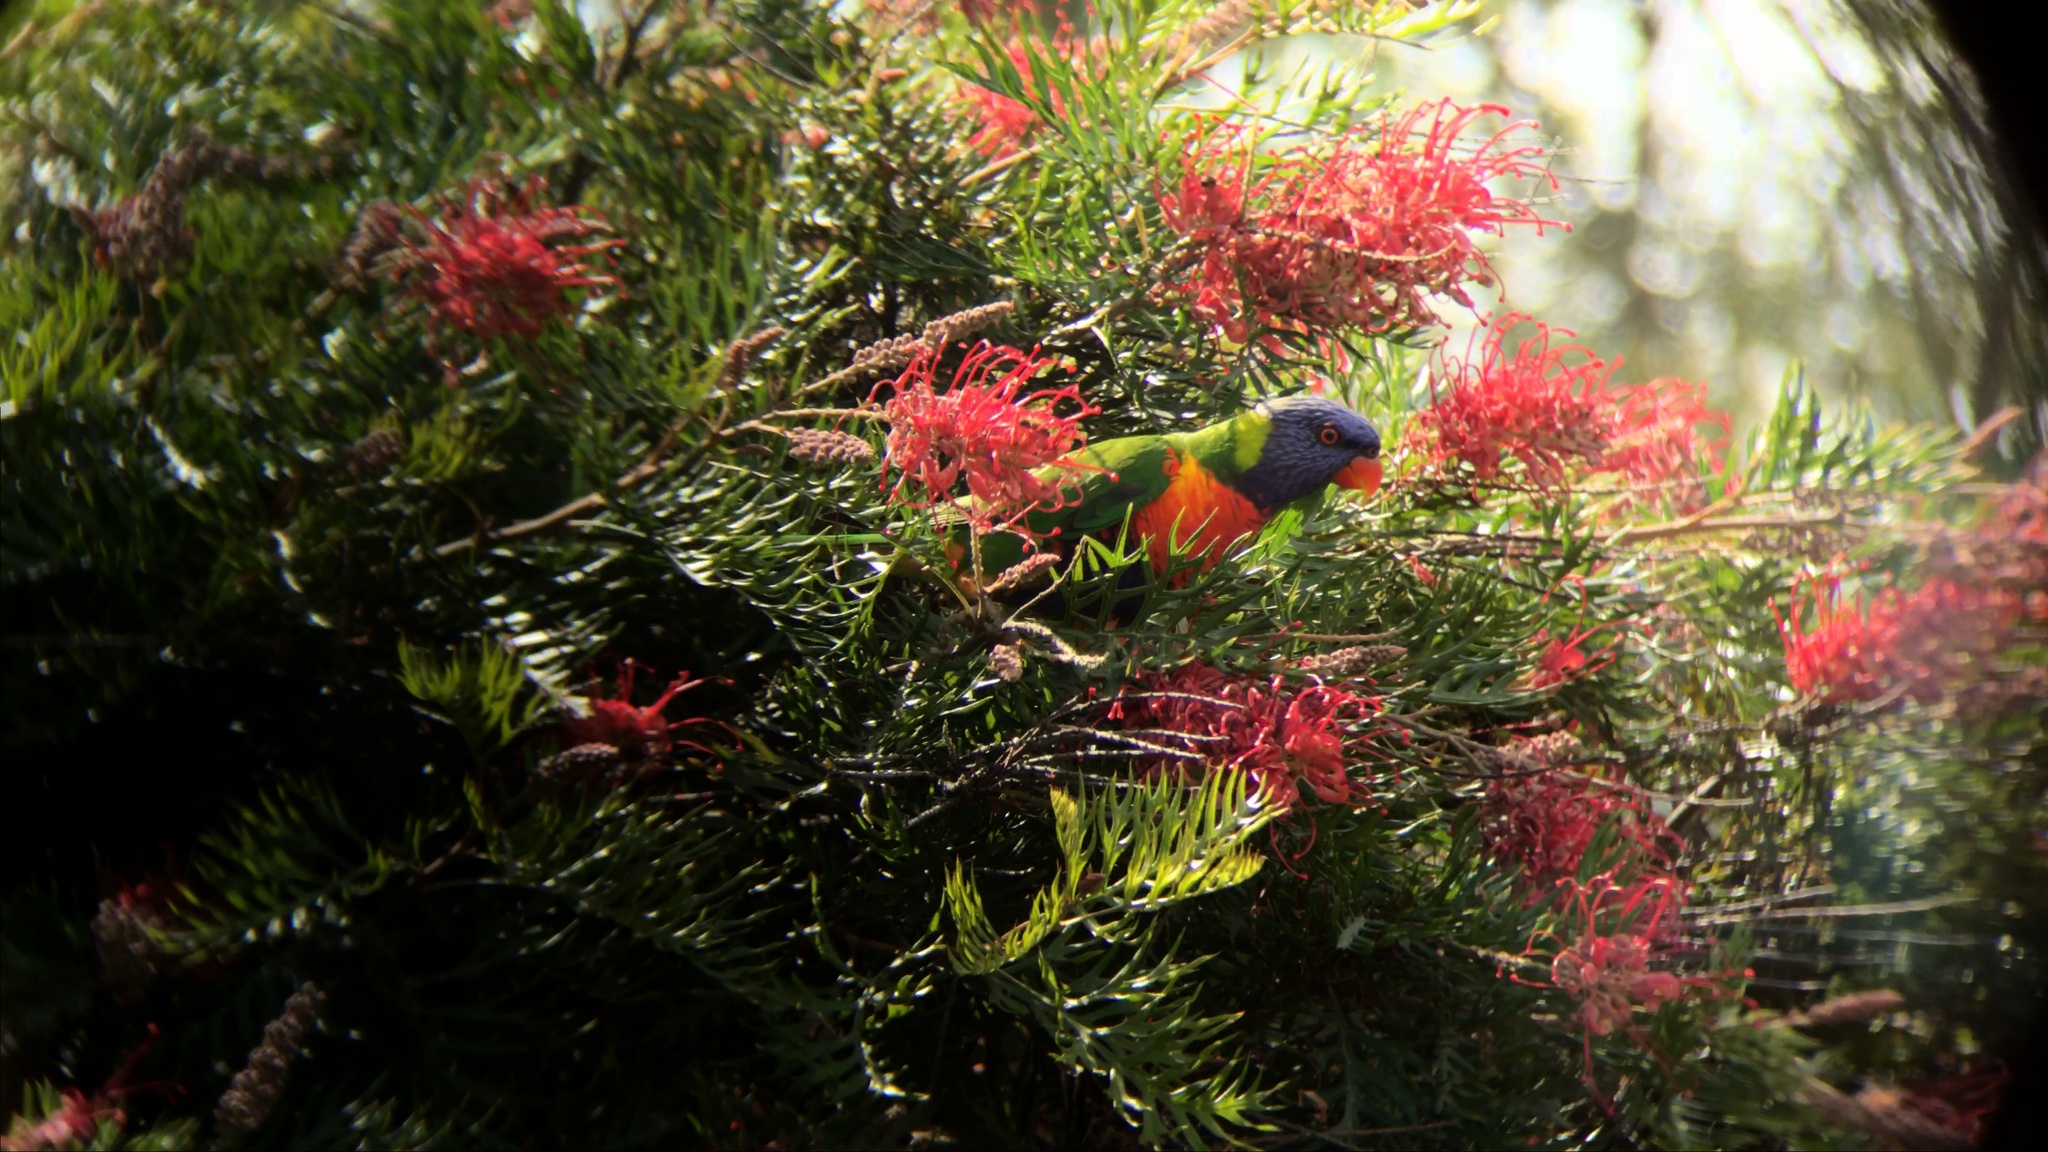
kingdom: Animalia
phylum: Chordata
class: Aves
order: Psittaciformes
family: Psittacidae
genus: Trichoglossus
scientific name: Trichoglossus haematodus
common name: Coconut lorikeet
